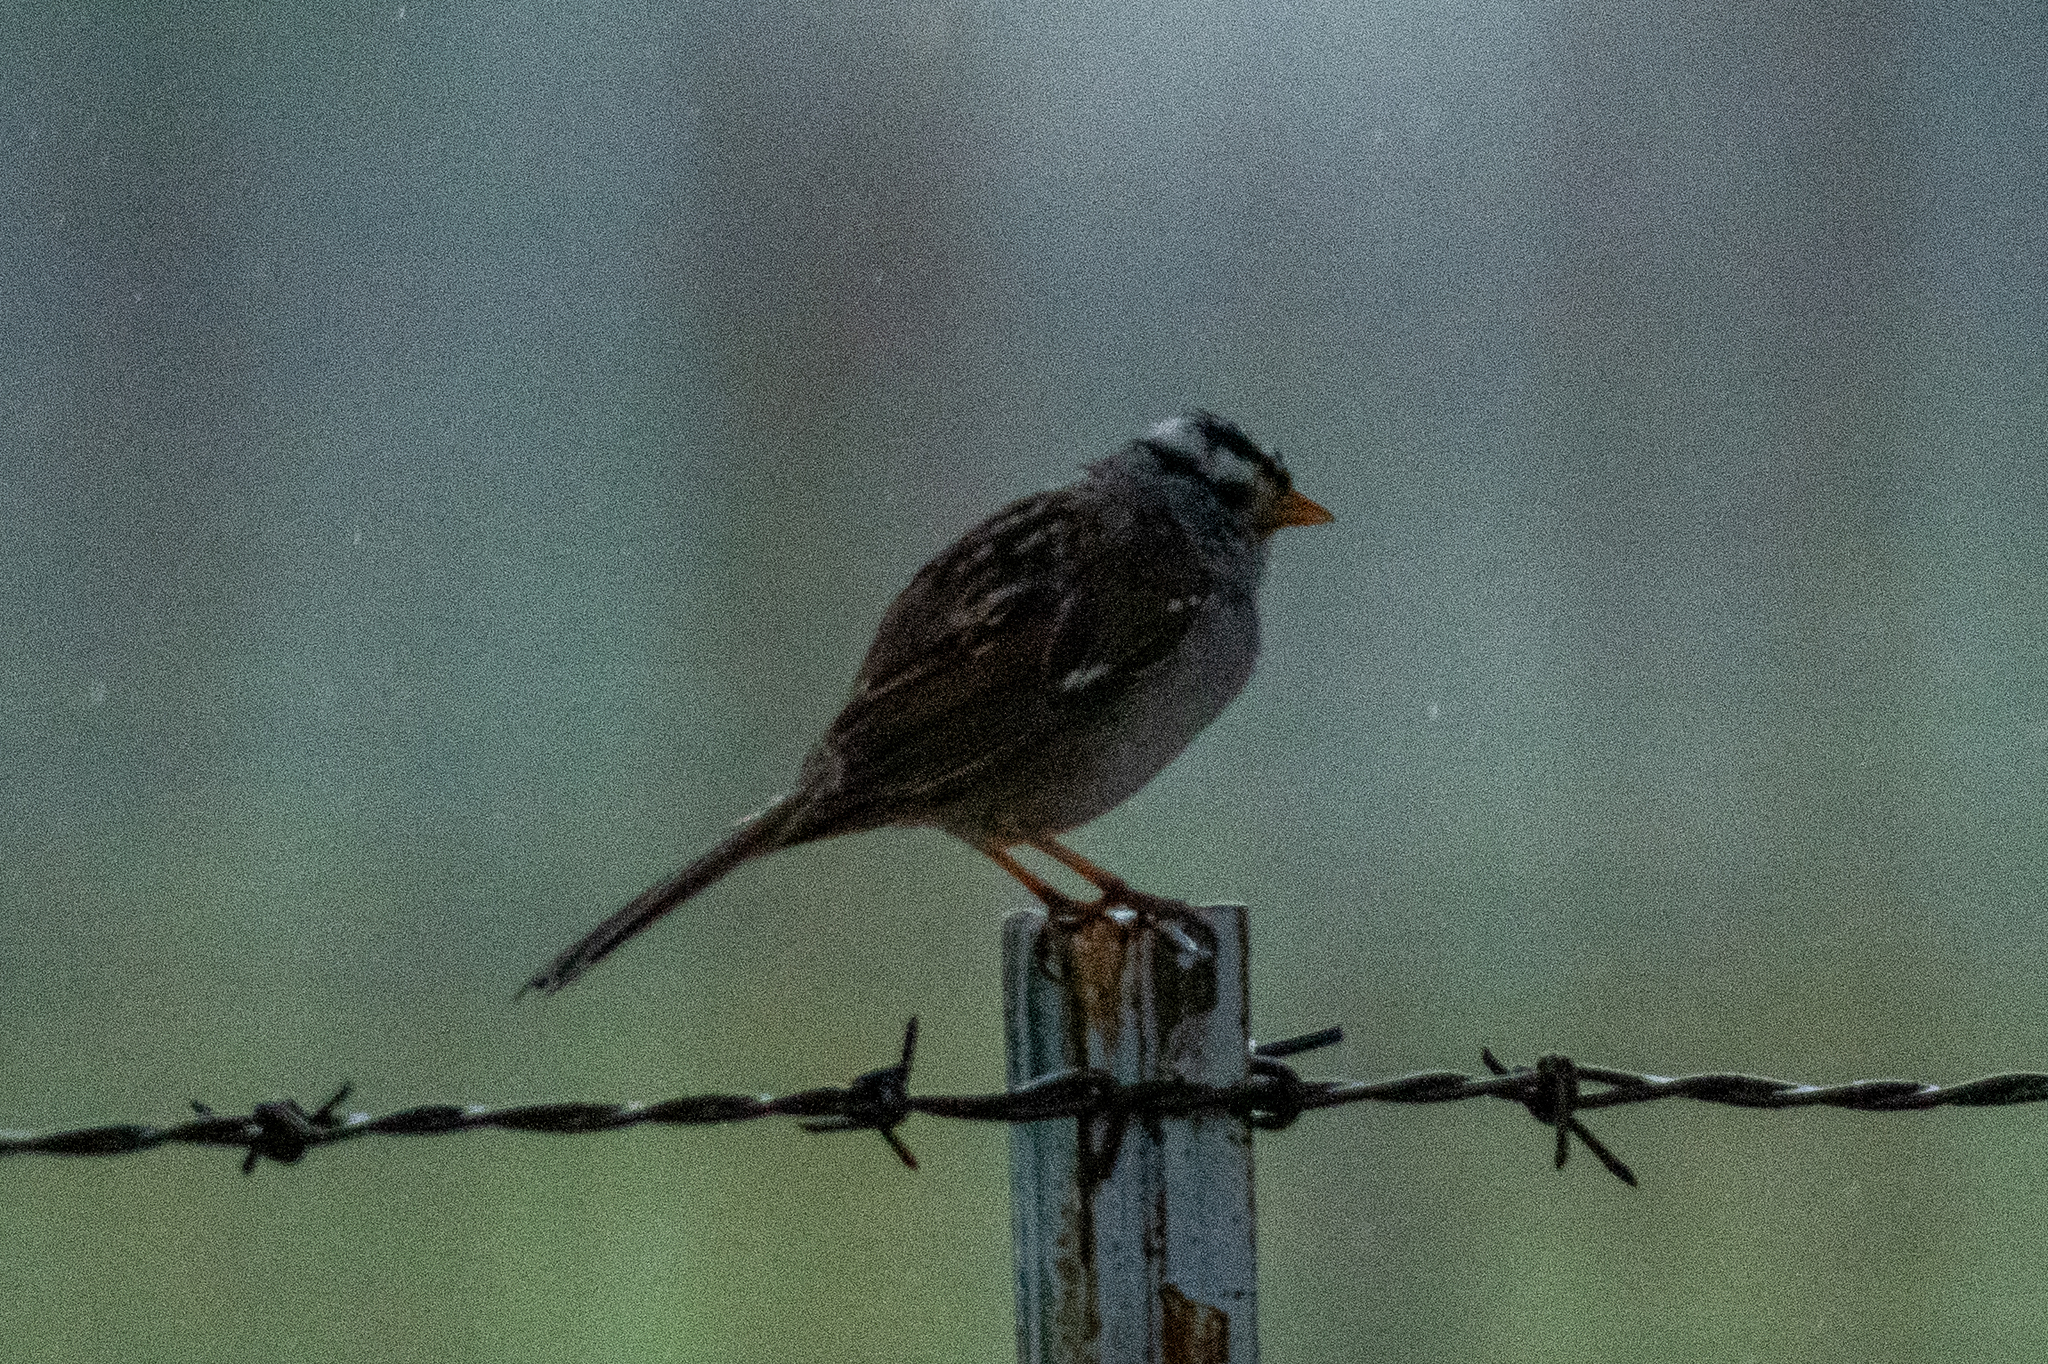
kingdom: Animalia
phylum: Chordata
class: Aves
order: Passeriformes
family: Passerellidae
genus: Zonotrichia
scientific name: Zonotrichia leucophrys
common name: White-crowned sparrow
